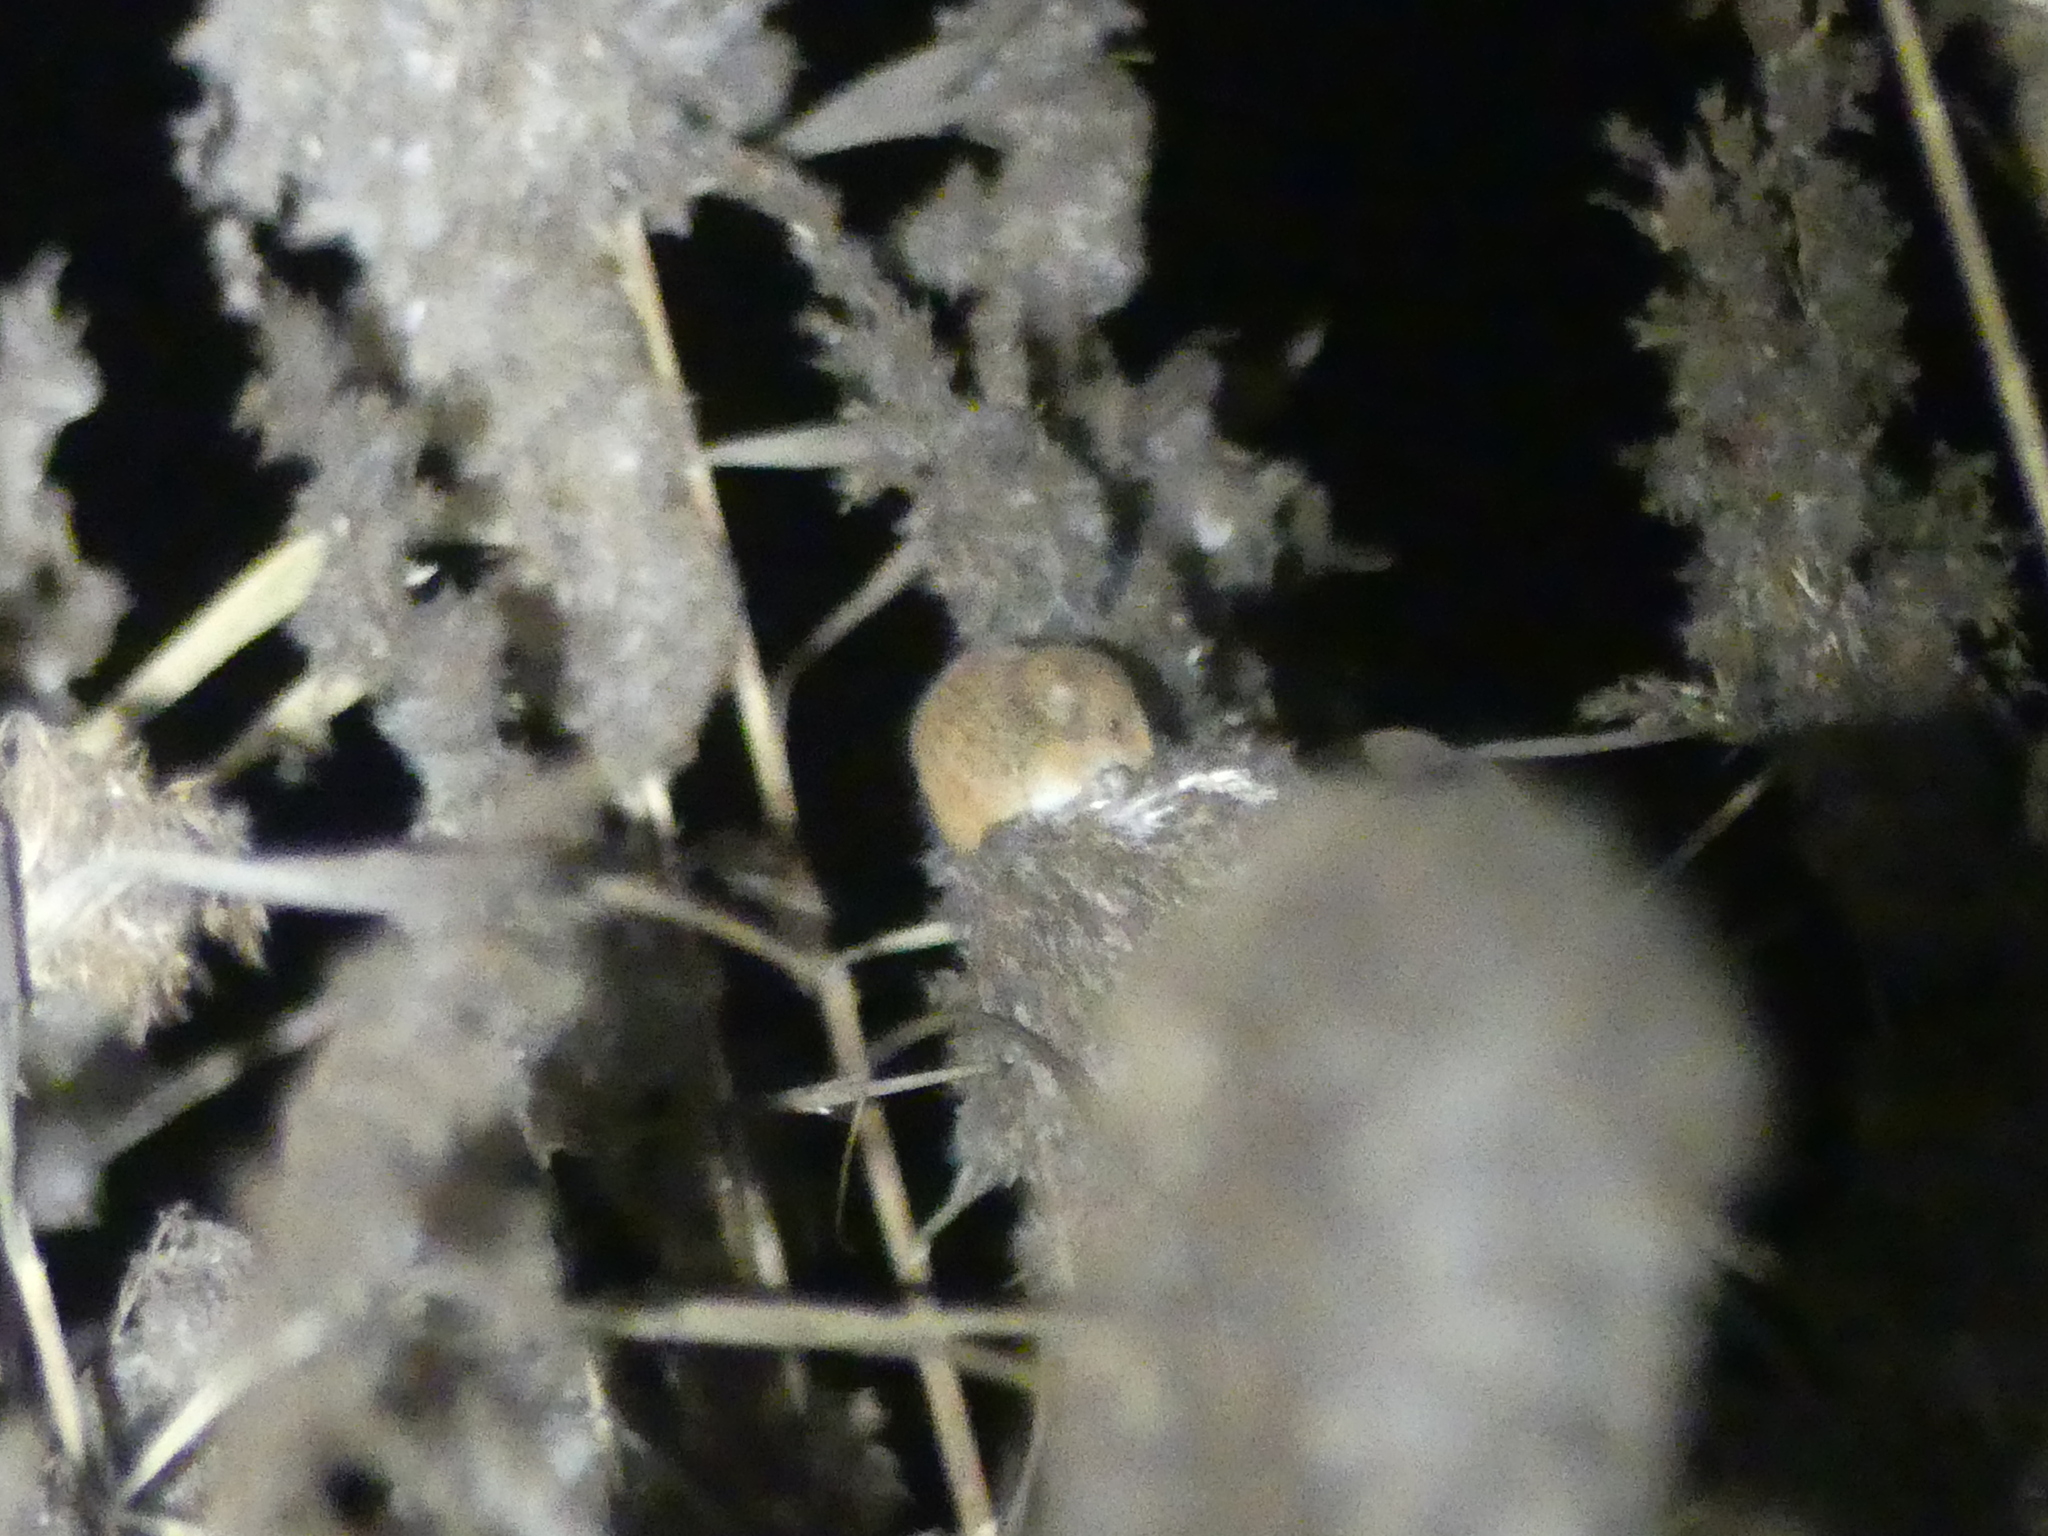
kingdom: Animalia
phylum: Chordata
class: Mammalia
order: Rodentia
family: Muridae
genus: Micromys
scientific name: Micromys minutus
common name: Harvest mouse
